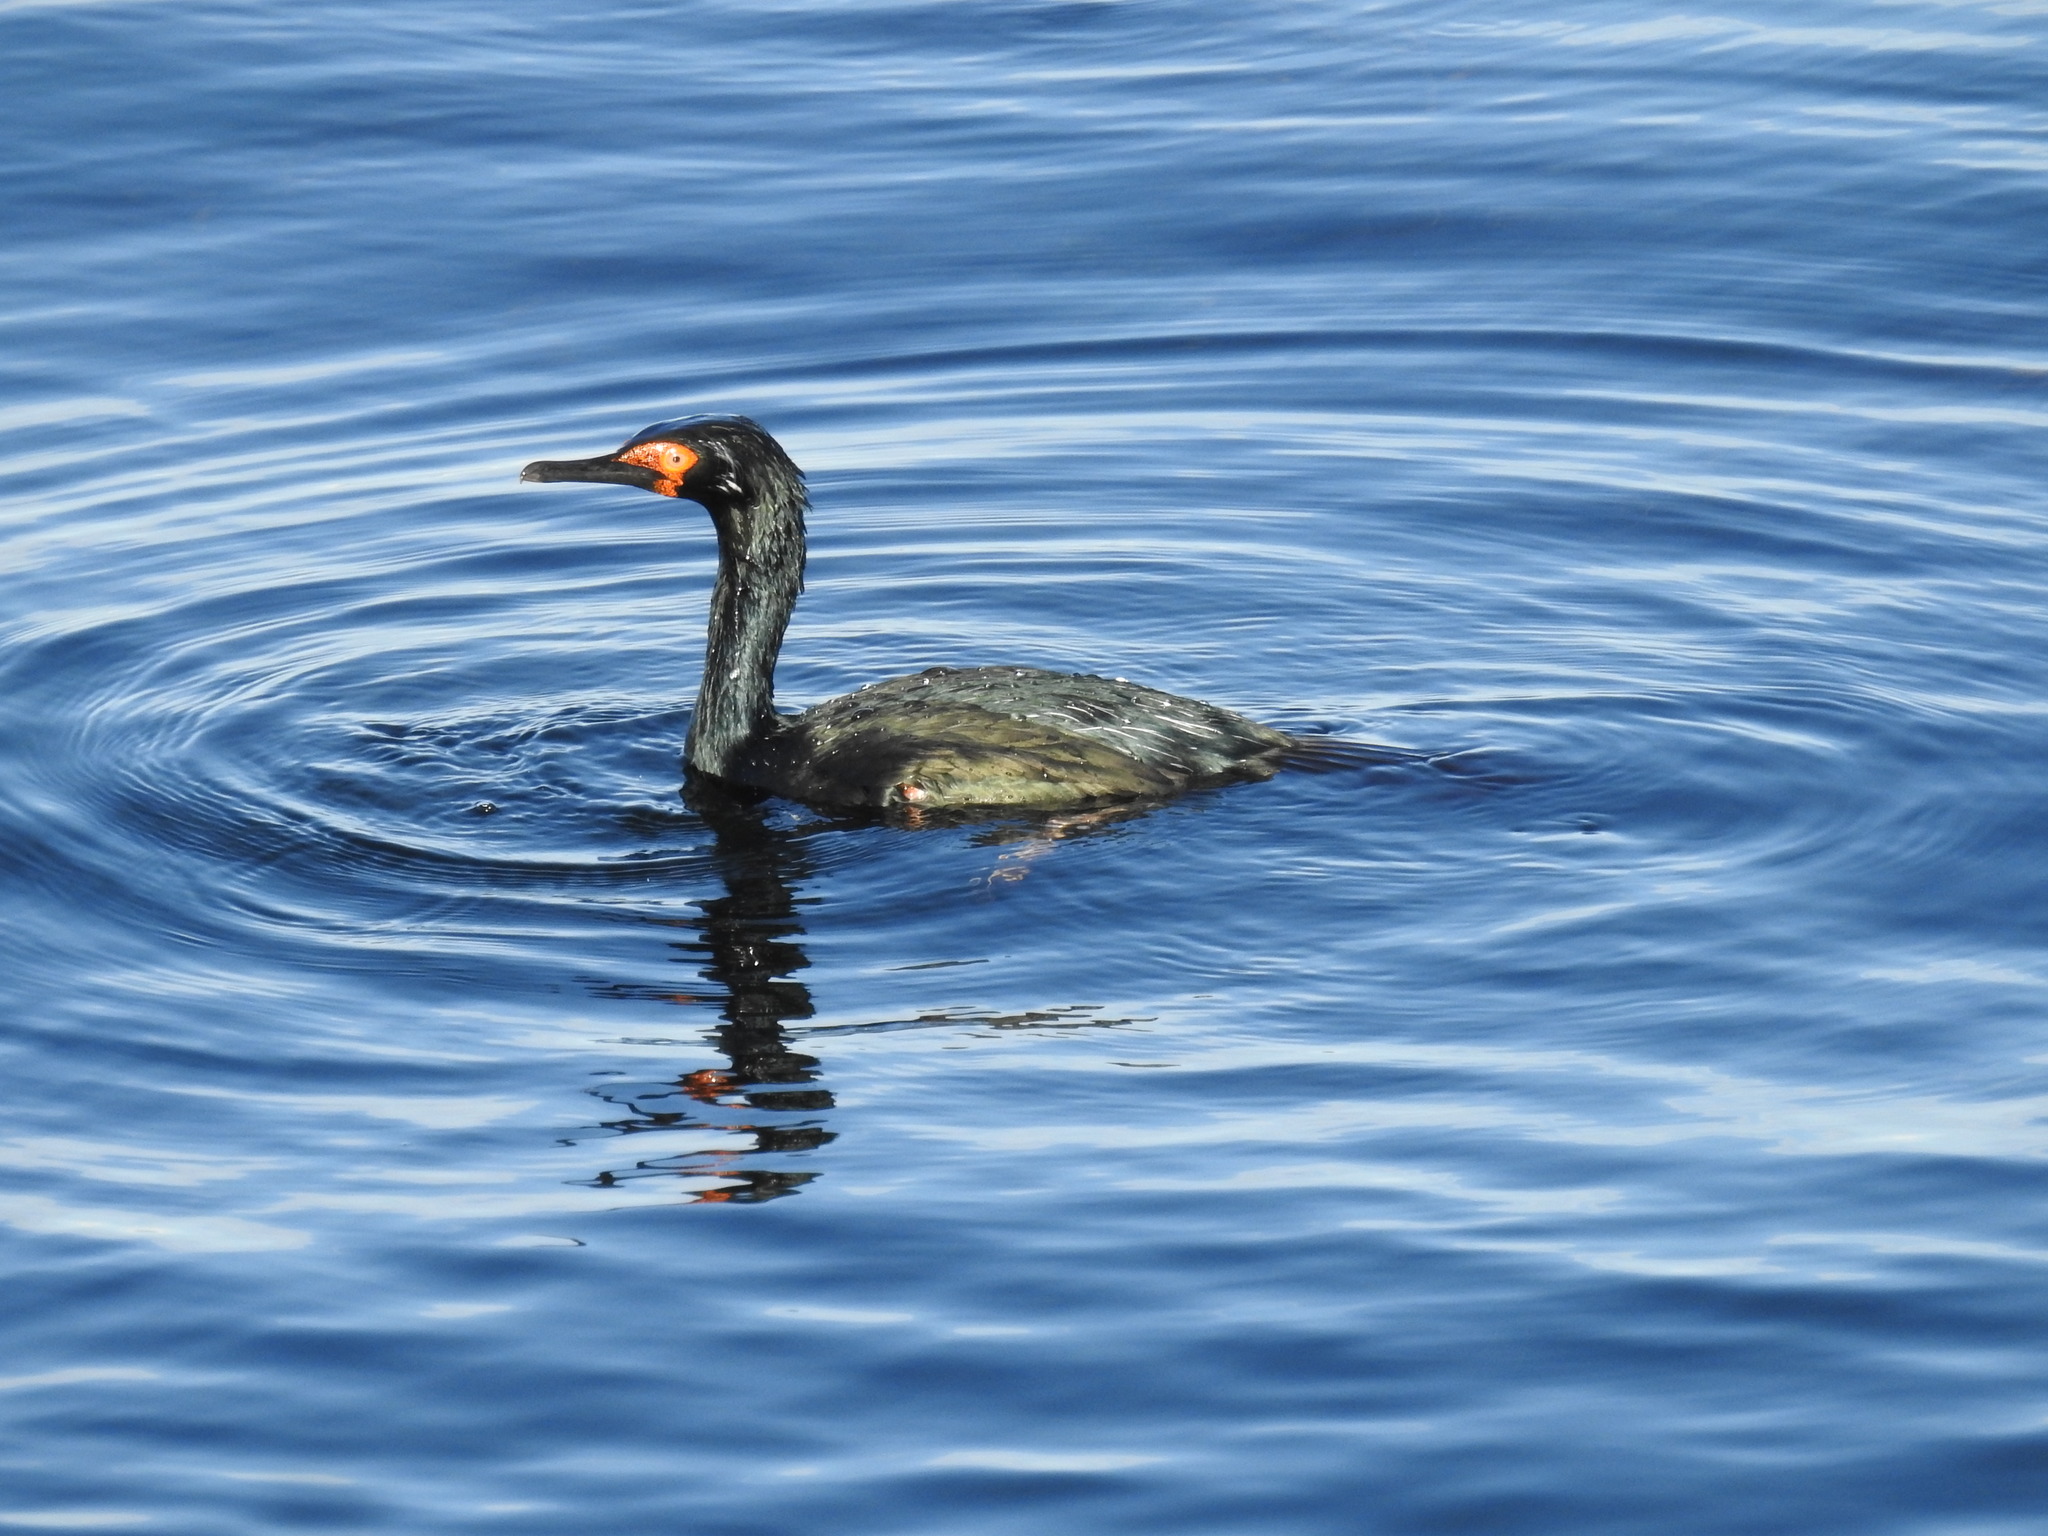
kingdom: Animalia
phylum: Chordata
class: Aves
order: Suliformes
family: Phalacrocoracidae
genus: Phalacrocorax
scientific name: Phalacrocorax magellanicus
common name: Rock shag
